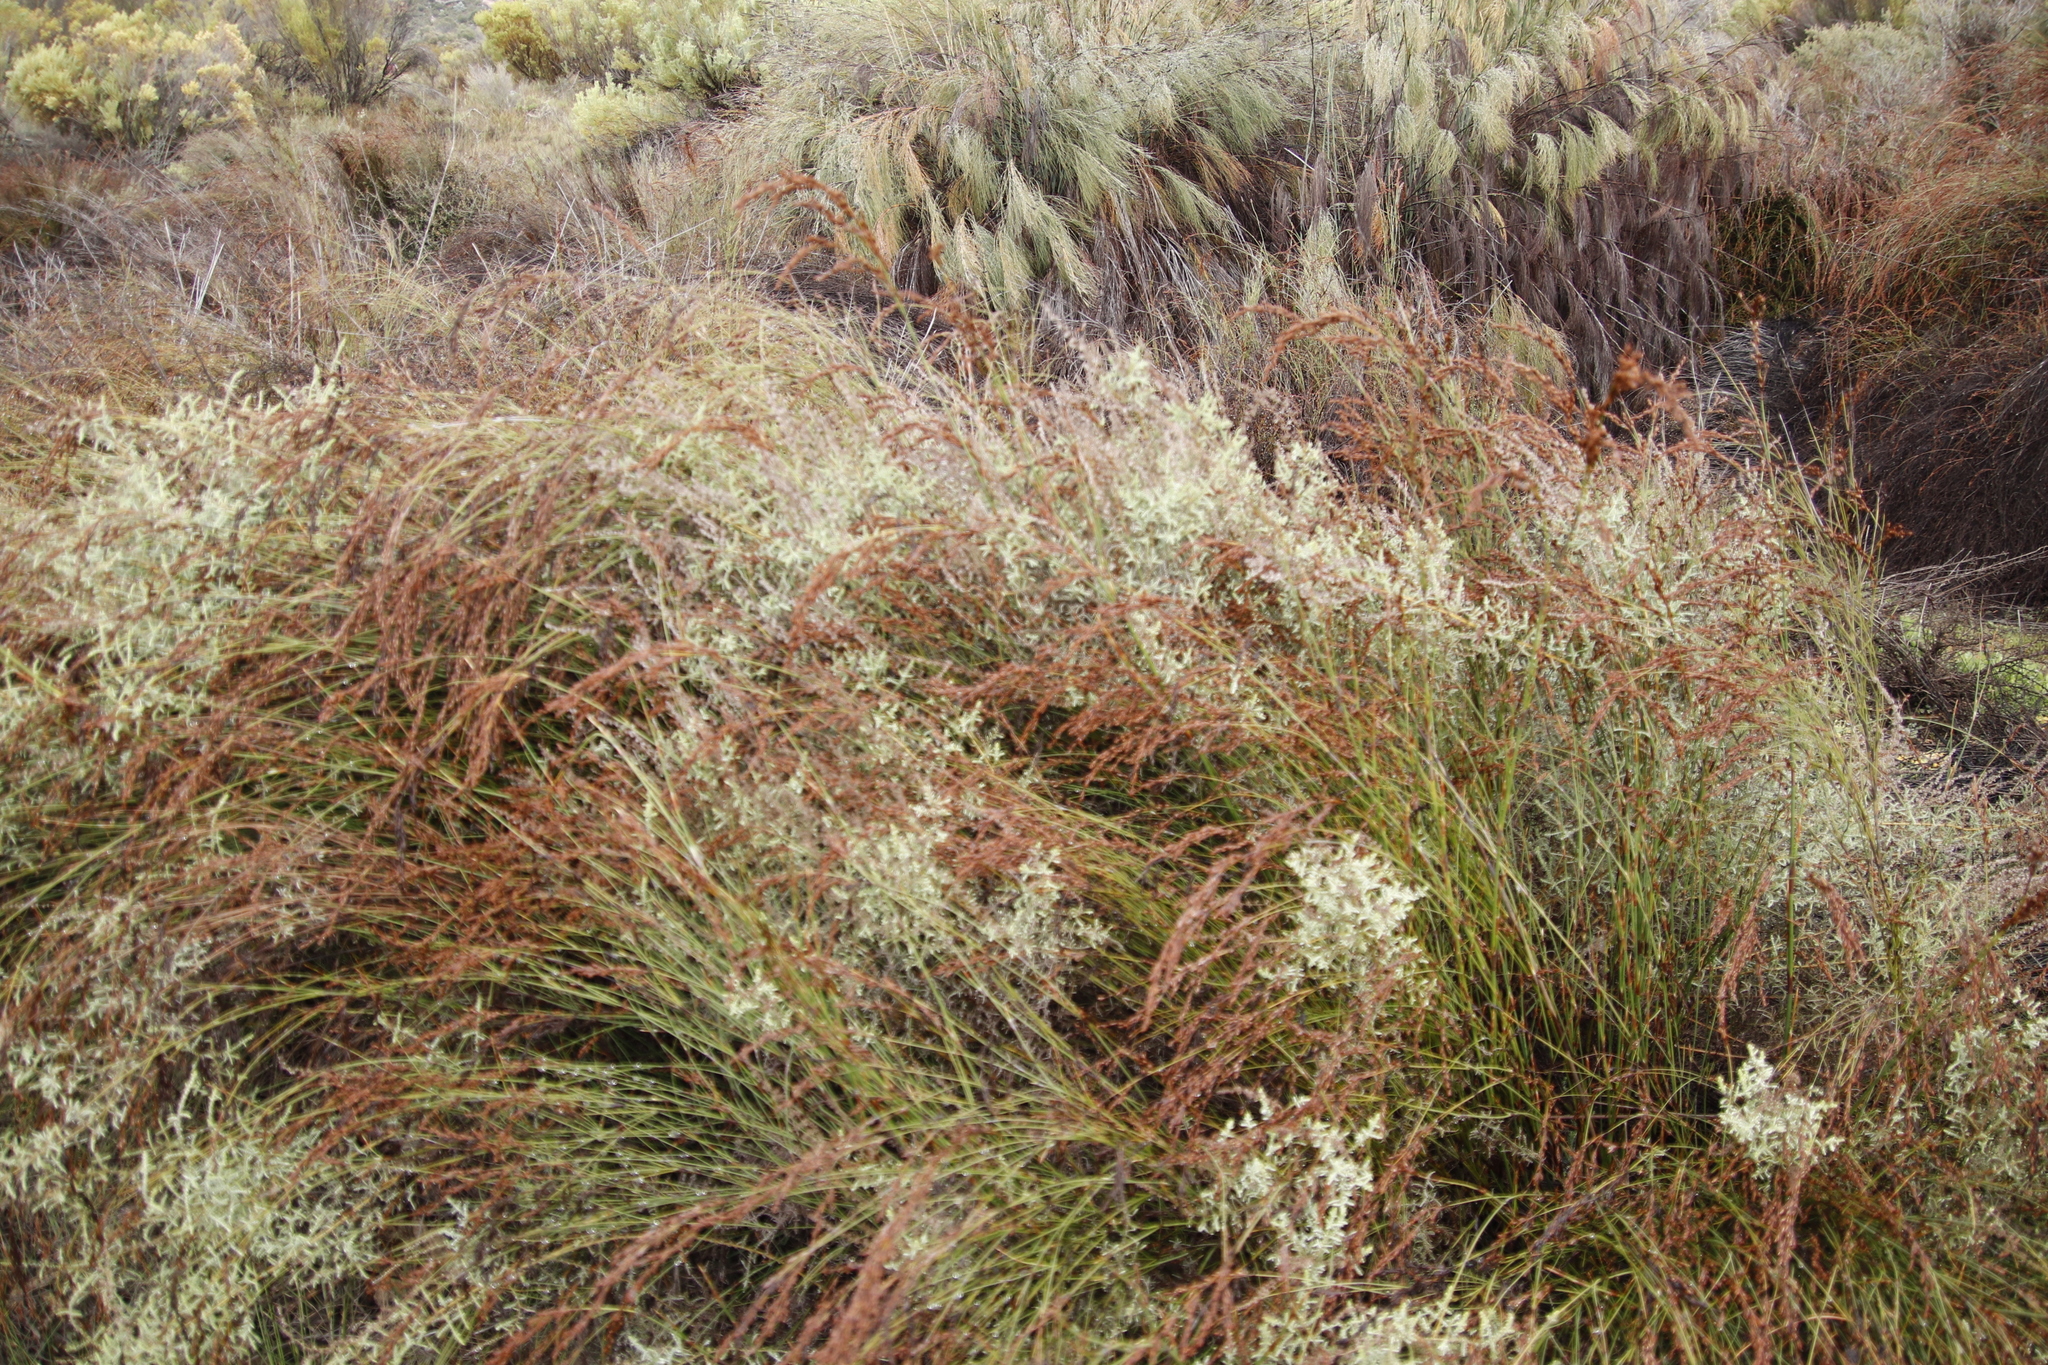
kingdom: Plantae
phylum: Tracheophyta
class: Magnoliopsida
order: Asterales
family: Asteraceae
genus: Seriphium
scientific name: Seriphium plumosum
